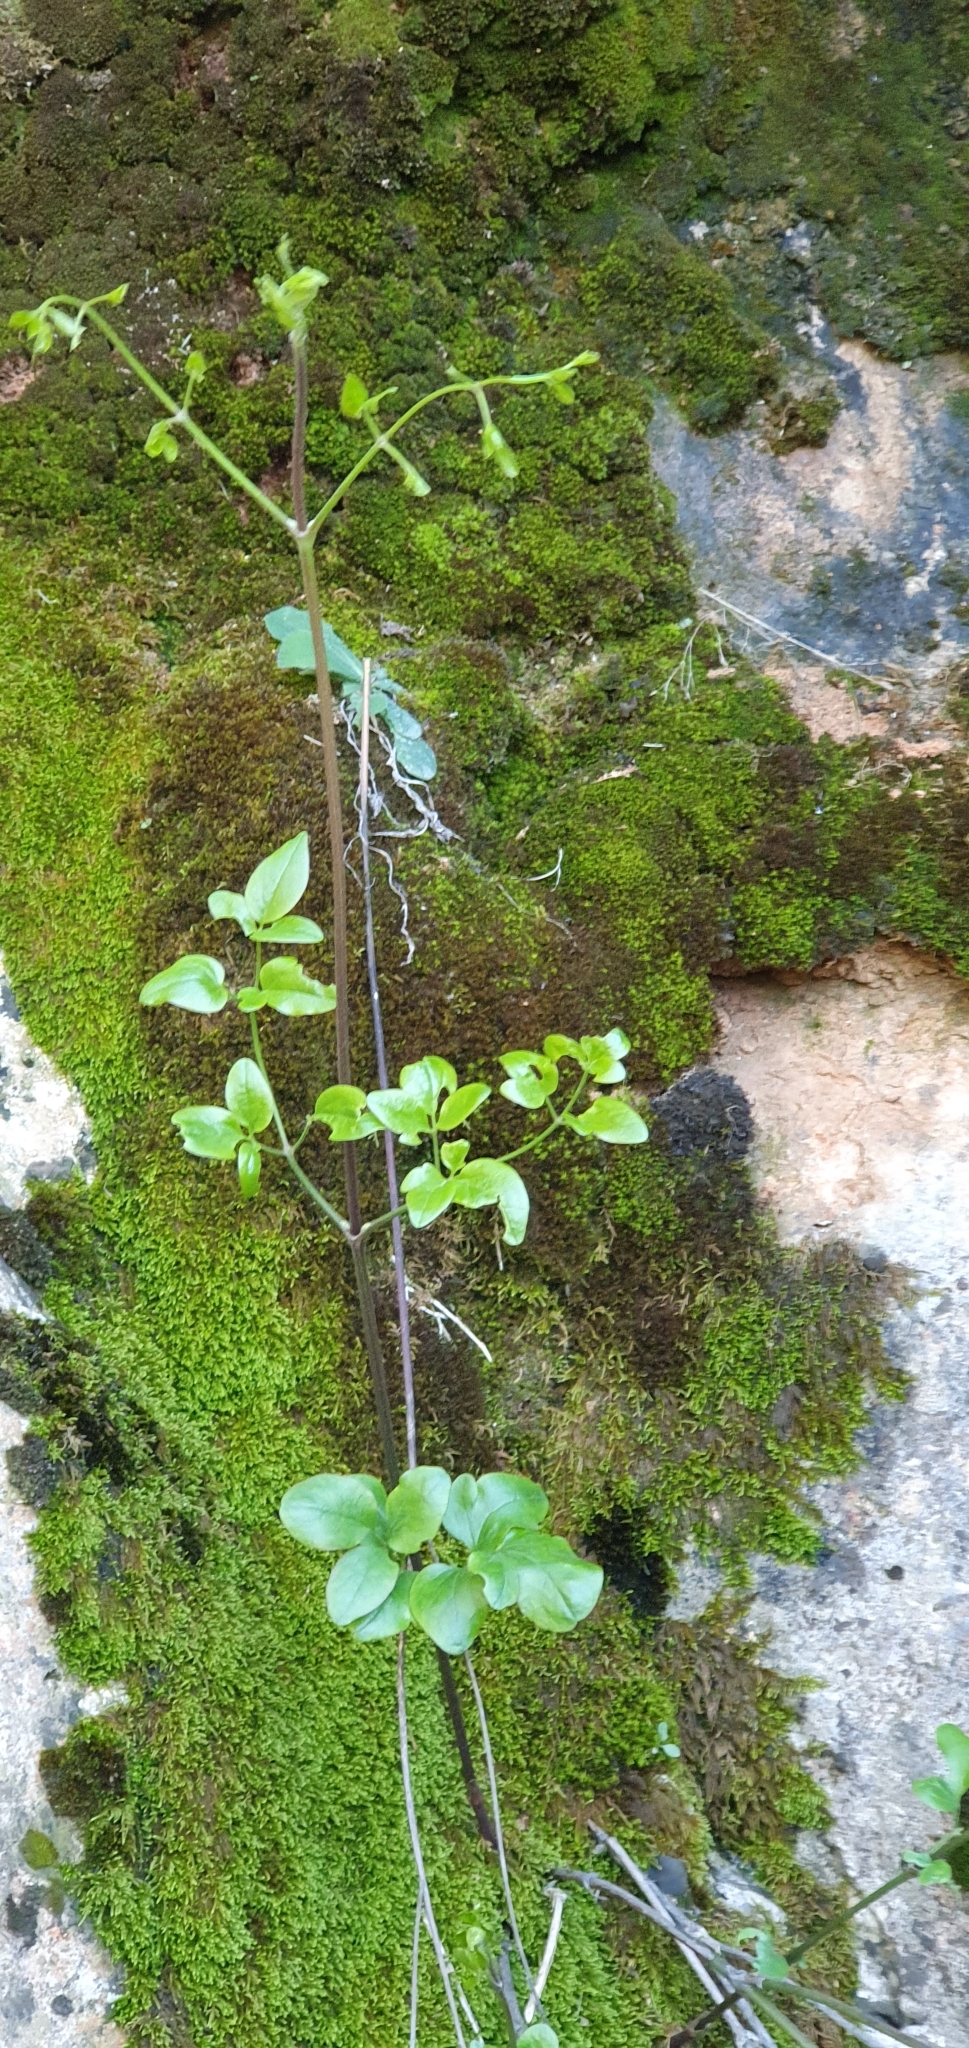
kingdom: Plantae
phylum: Tracheophyta
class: Magnoliopsida
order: Ranunculales
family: Ranunculaceae
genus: Clematis
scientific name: Clematis flammula
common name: Virgin's-bower
